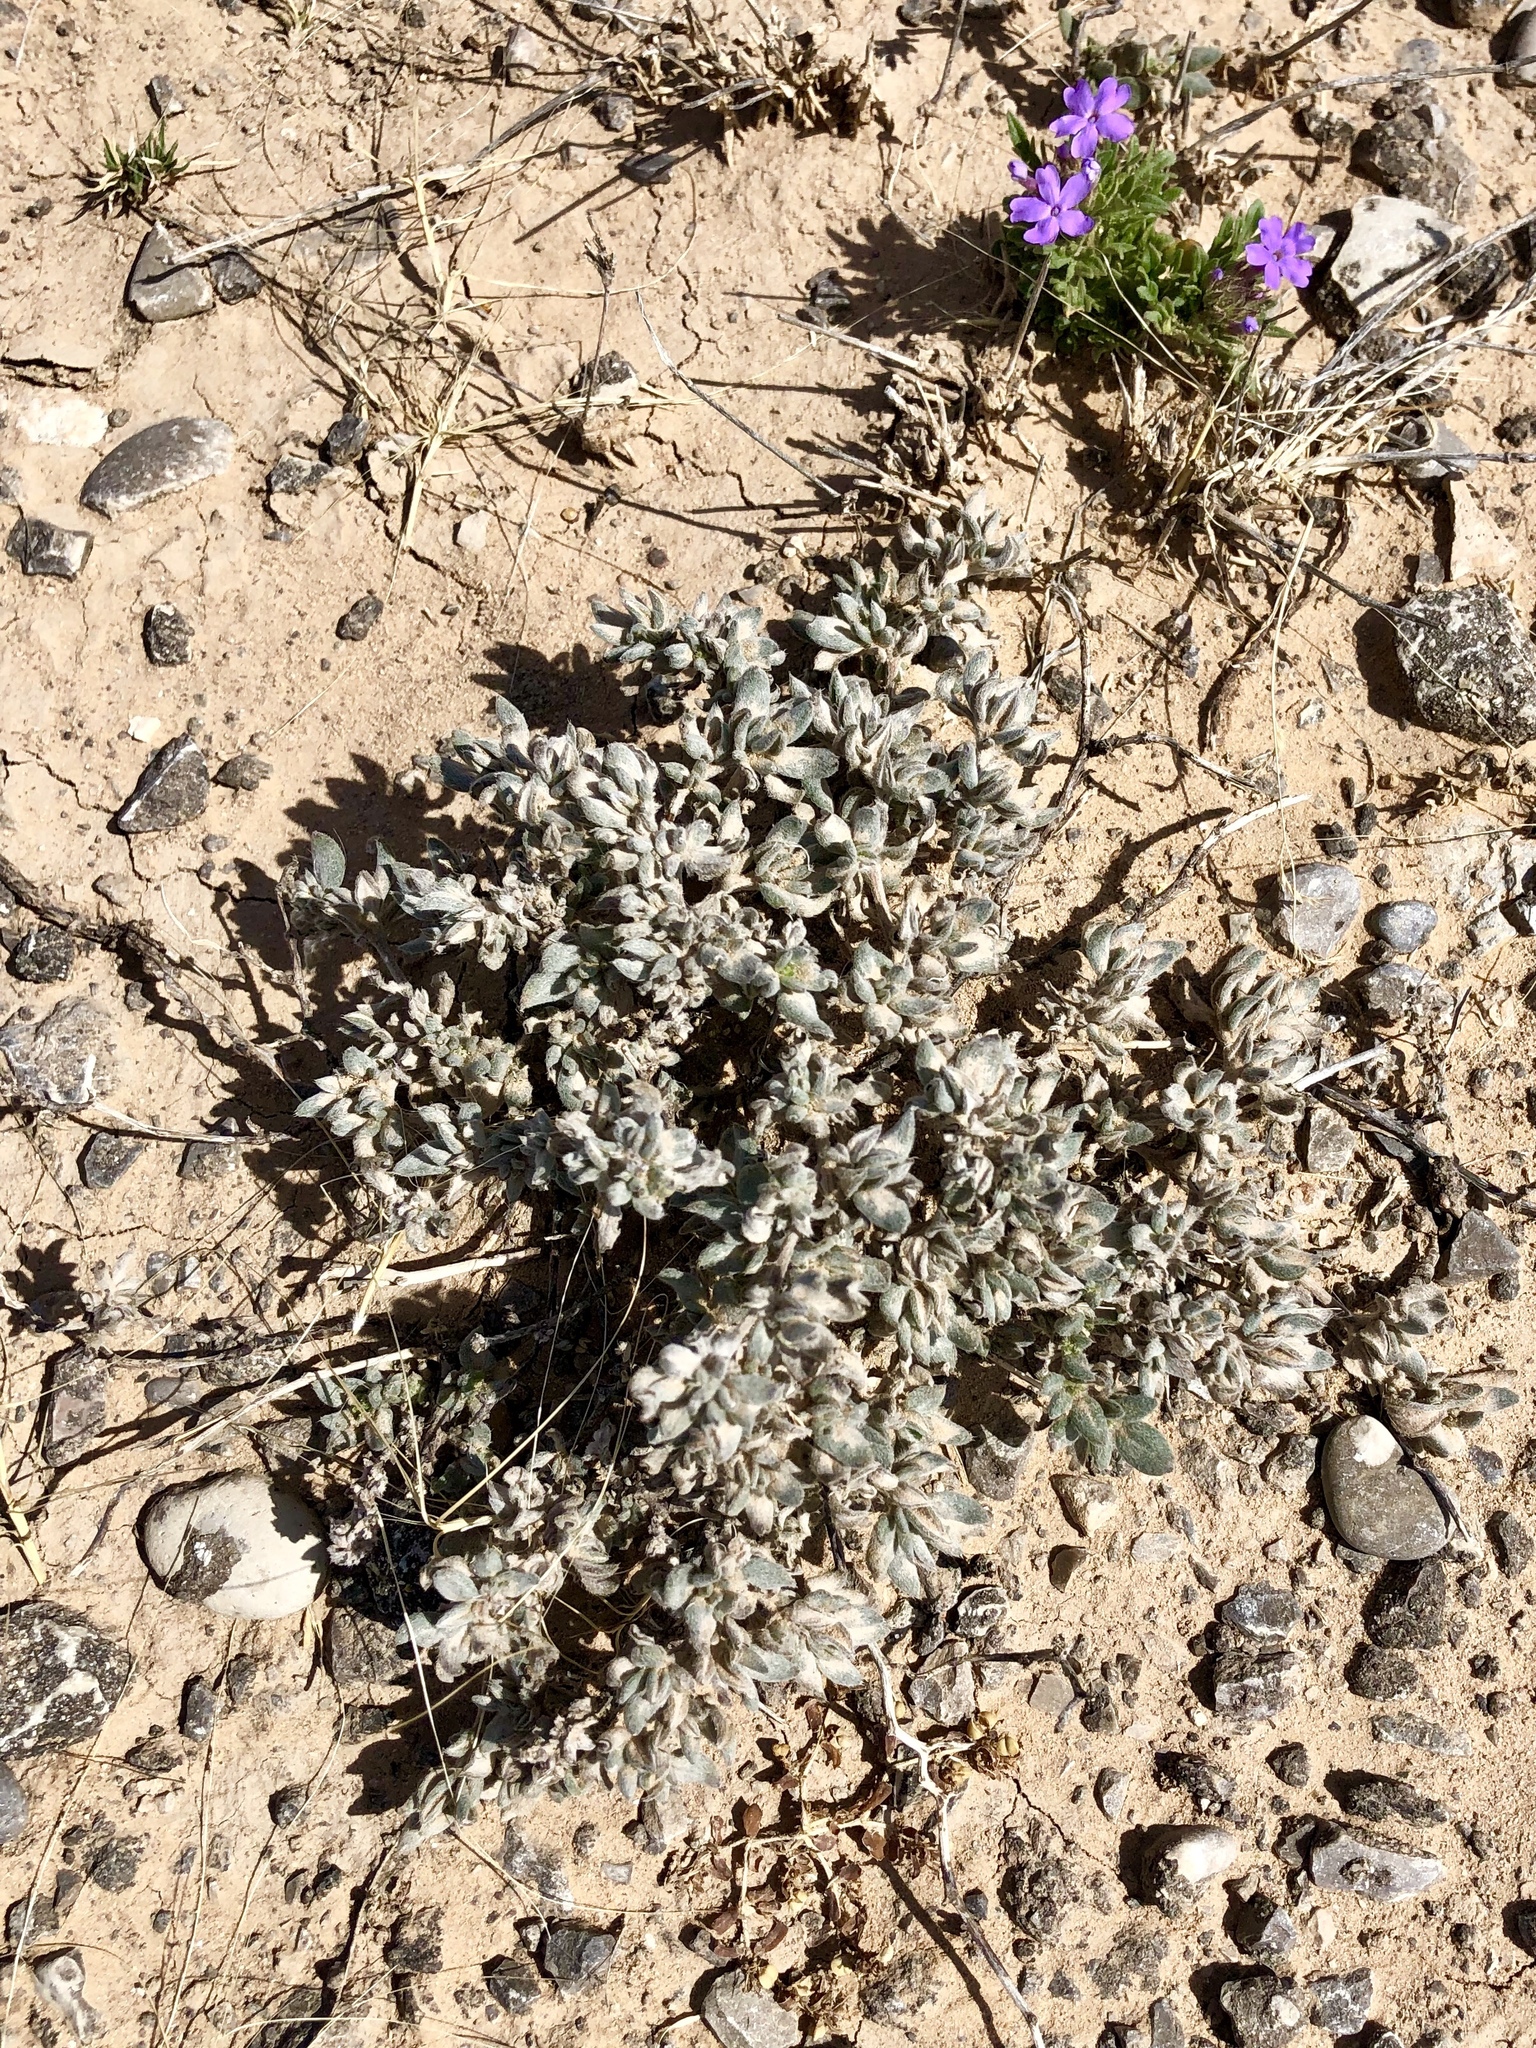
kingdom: Plantae
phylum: Tracheophyta
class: Magnoliopsida
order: Boraginales
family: Ehretiaceae
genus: Tiquilia
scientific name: Tiquilia canescens
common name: Hairy tiquilia
